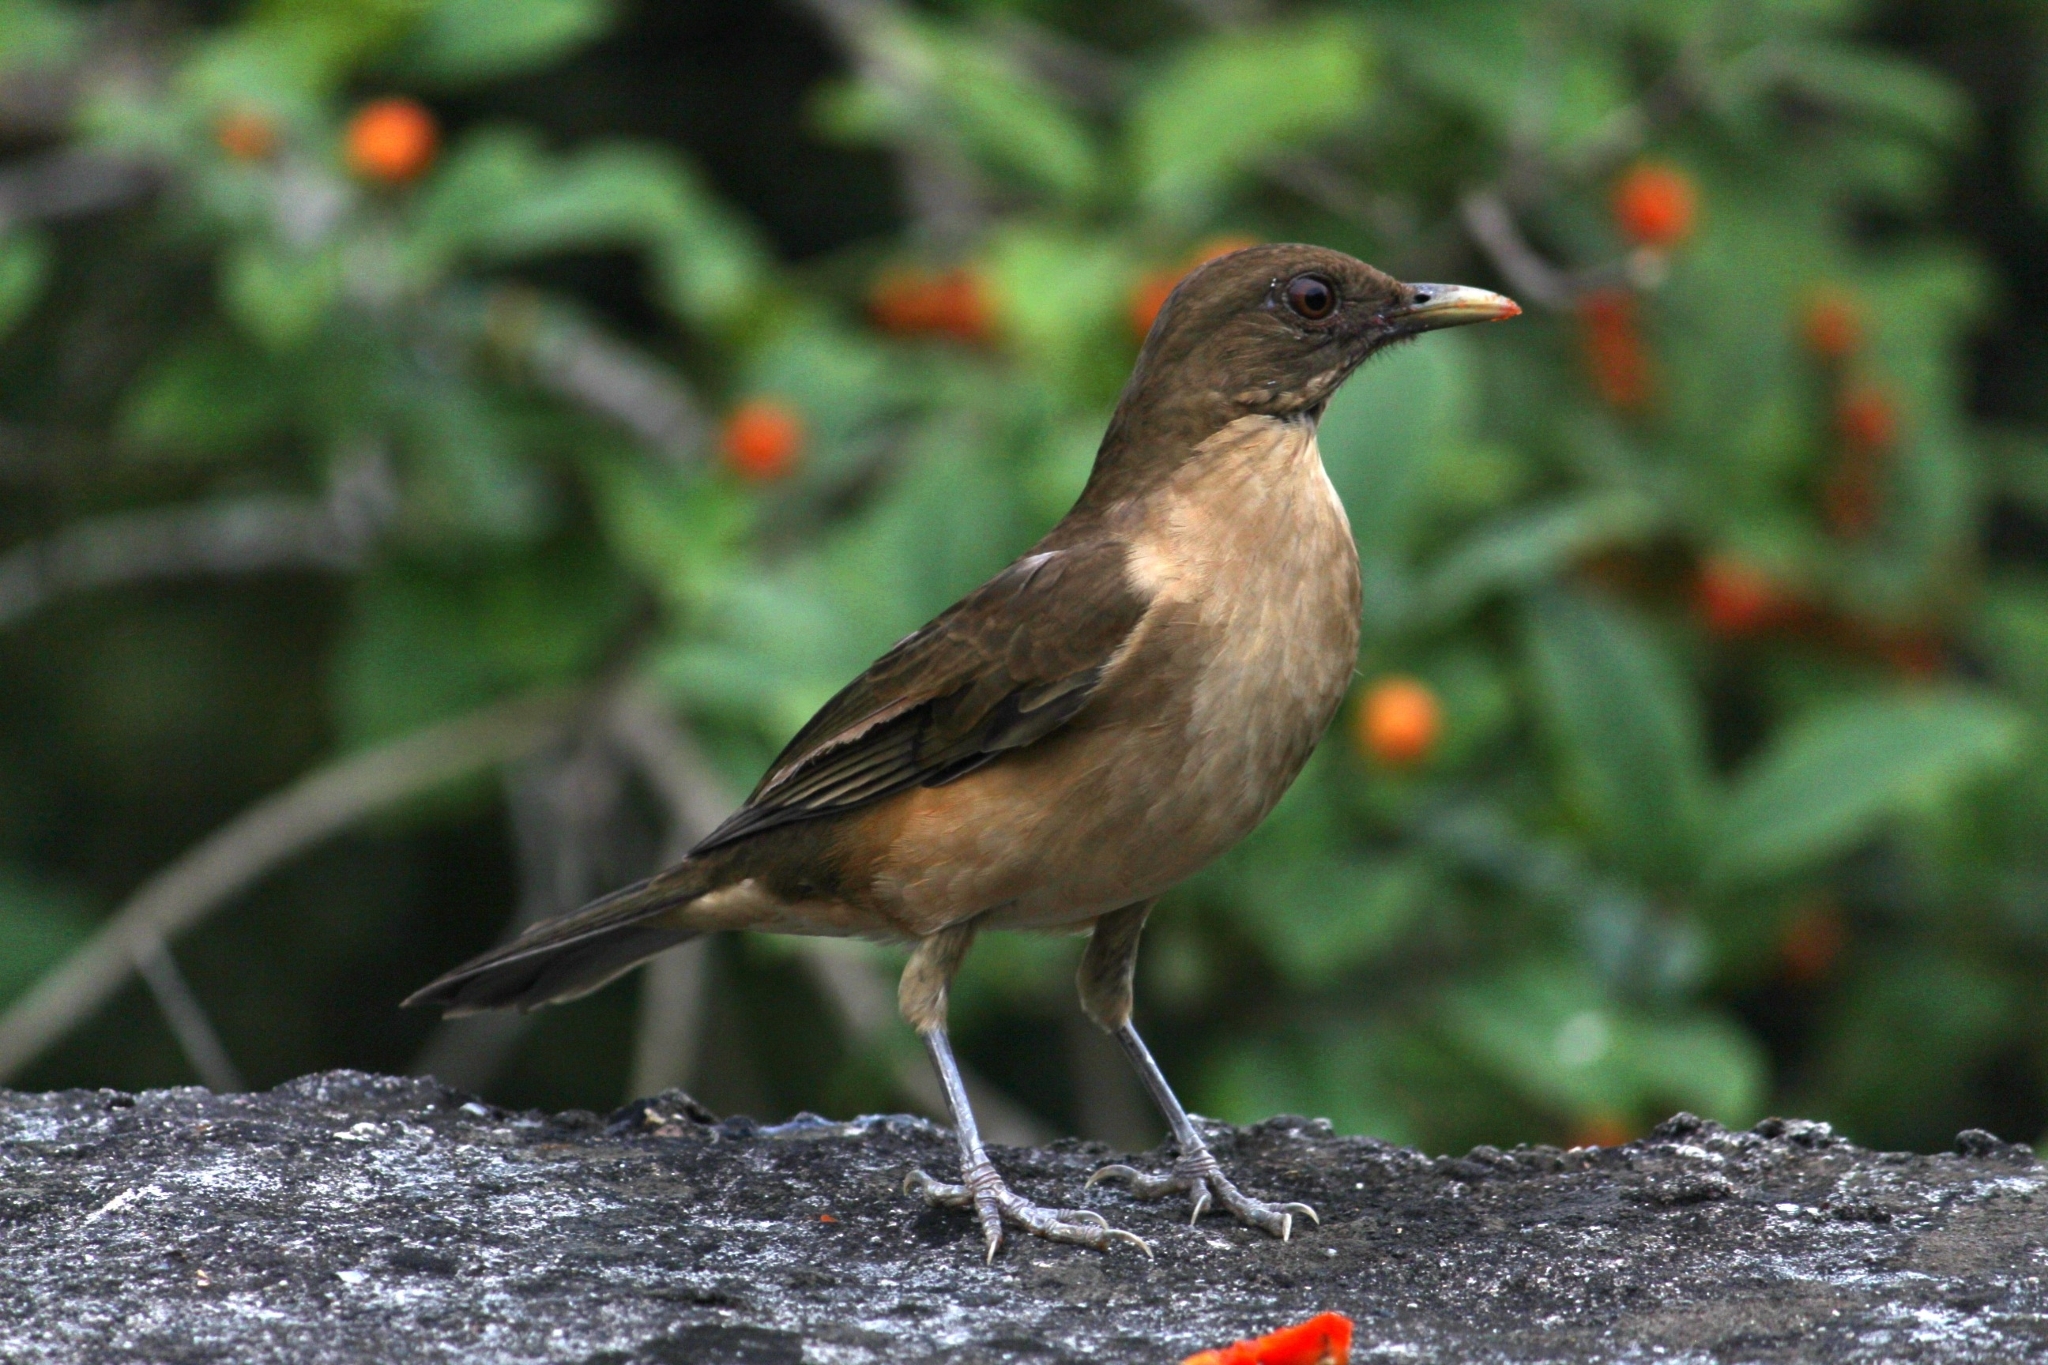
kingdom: Animalia
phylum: Chordata
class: Aves
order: Passeriformes
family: Turdidae
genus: Turdus
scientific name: Turdus grayi
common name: Clay-colored thrush
